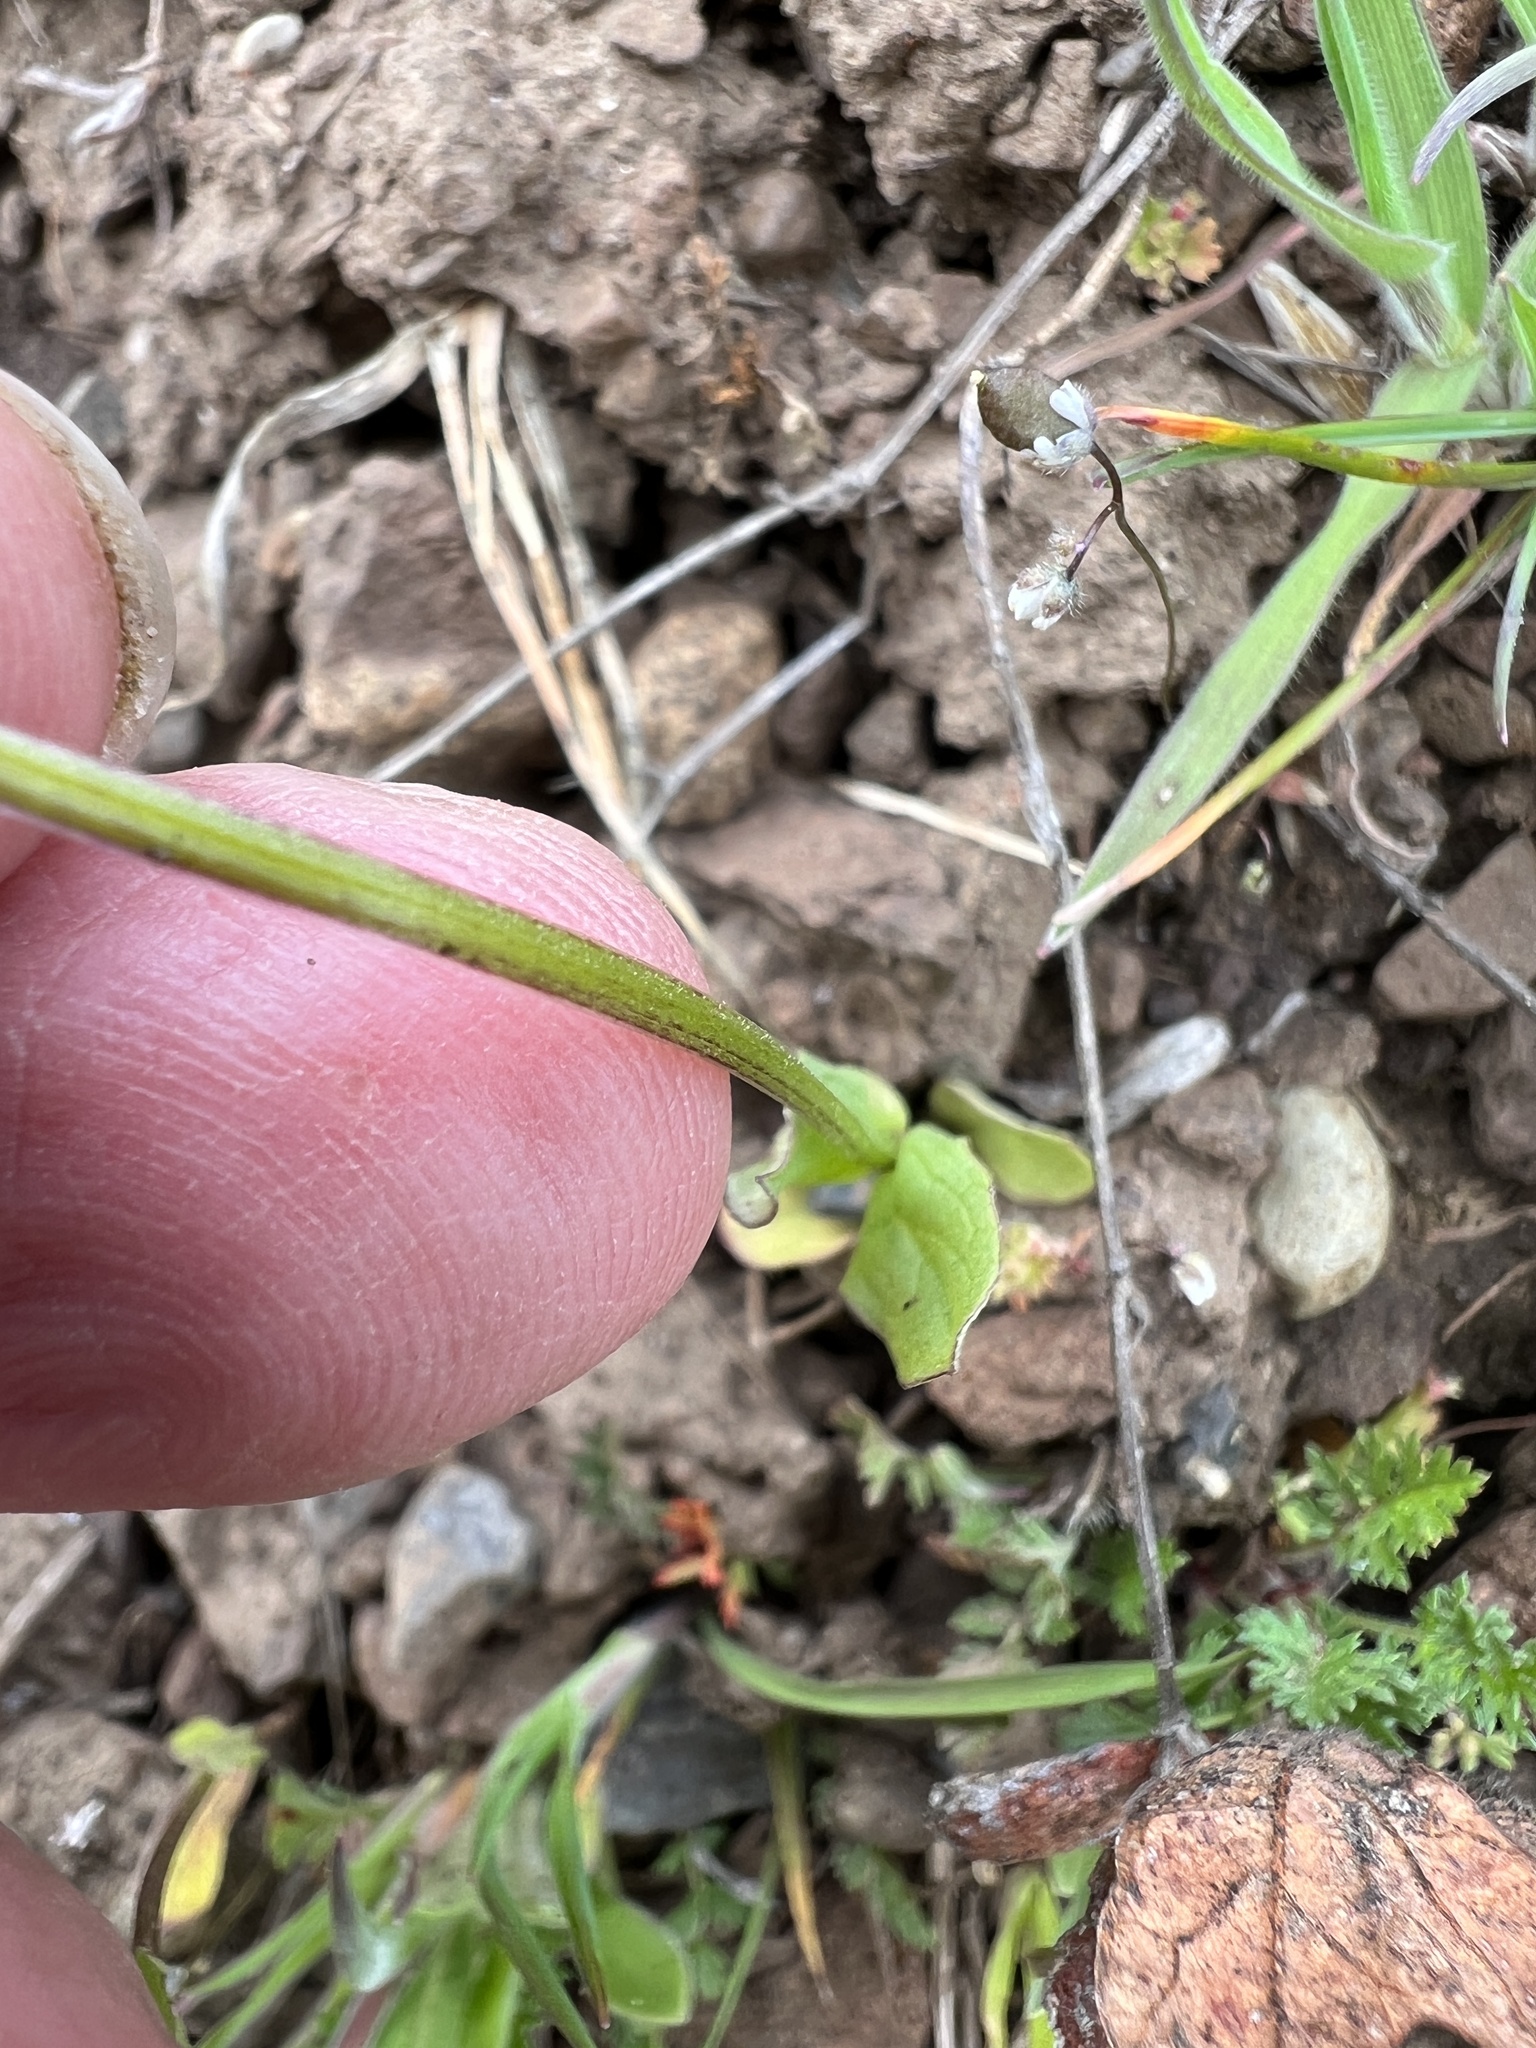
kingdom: Plantae
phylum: Tracheophyta
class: Magnoliopsida
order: Dipsacales
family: Caprifoliaceae
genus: Plectritis
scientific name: Plectritis macroptera
